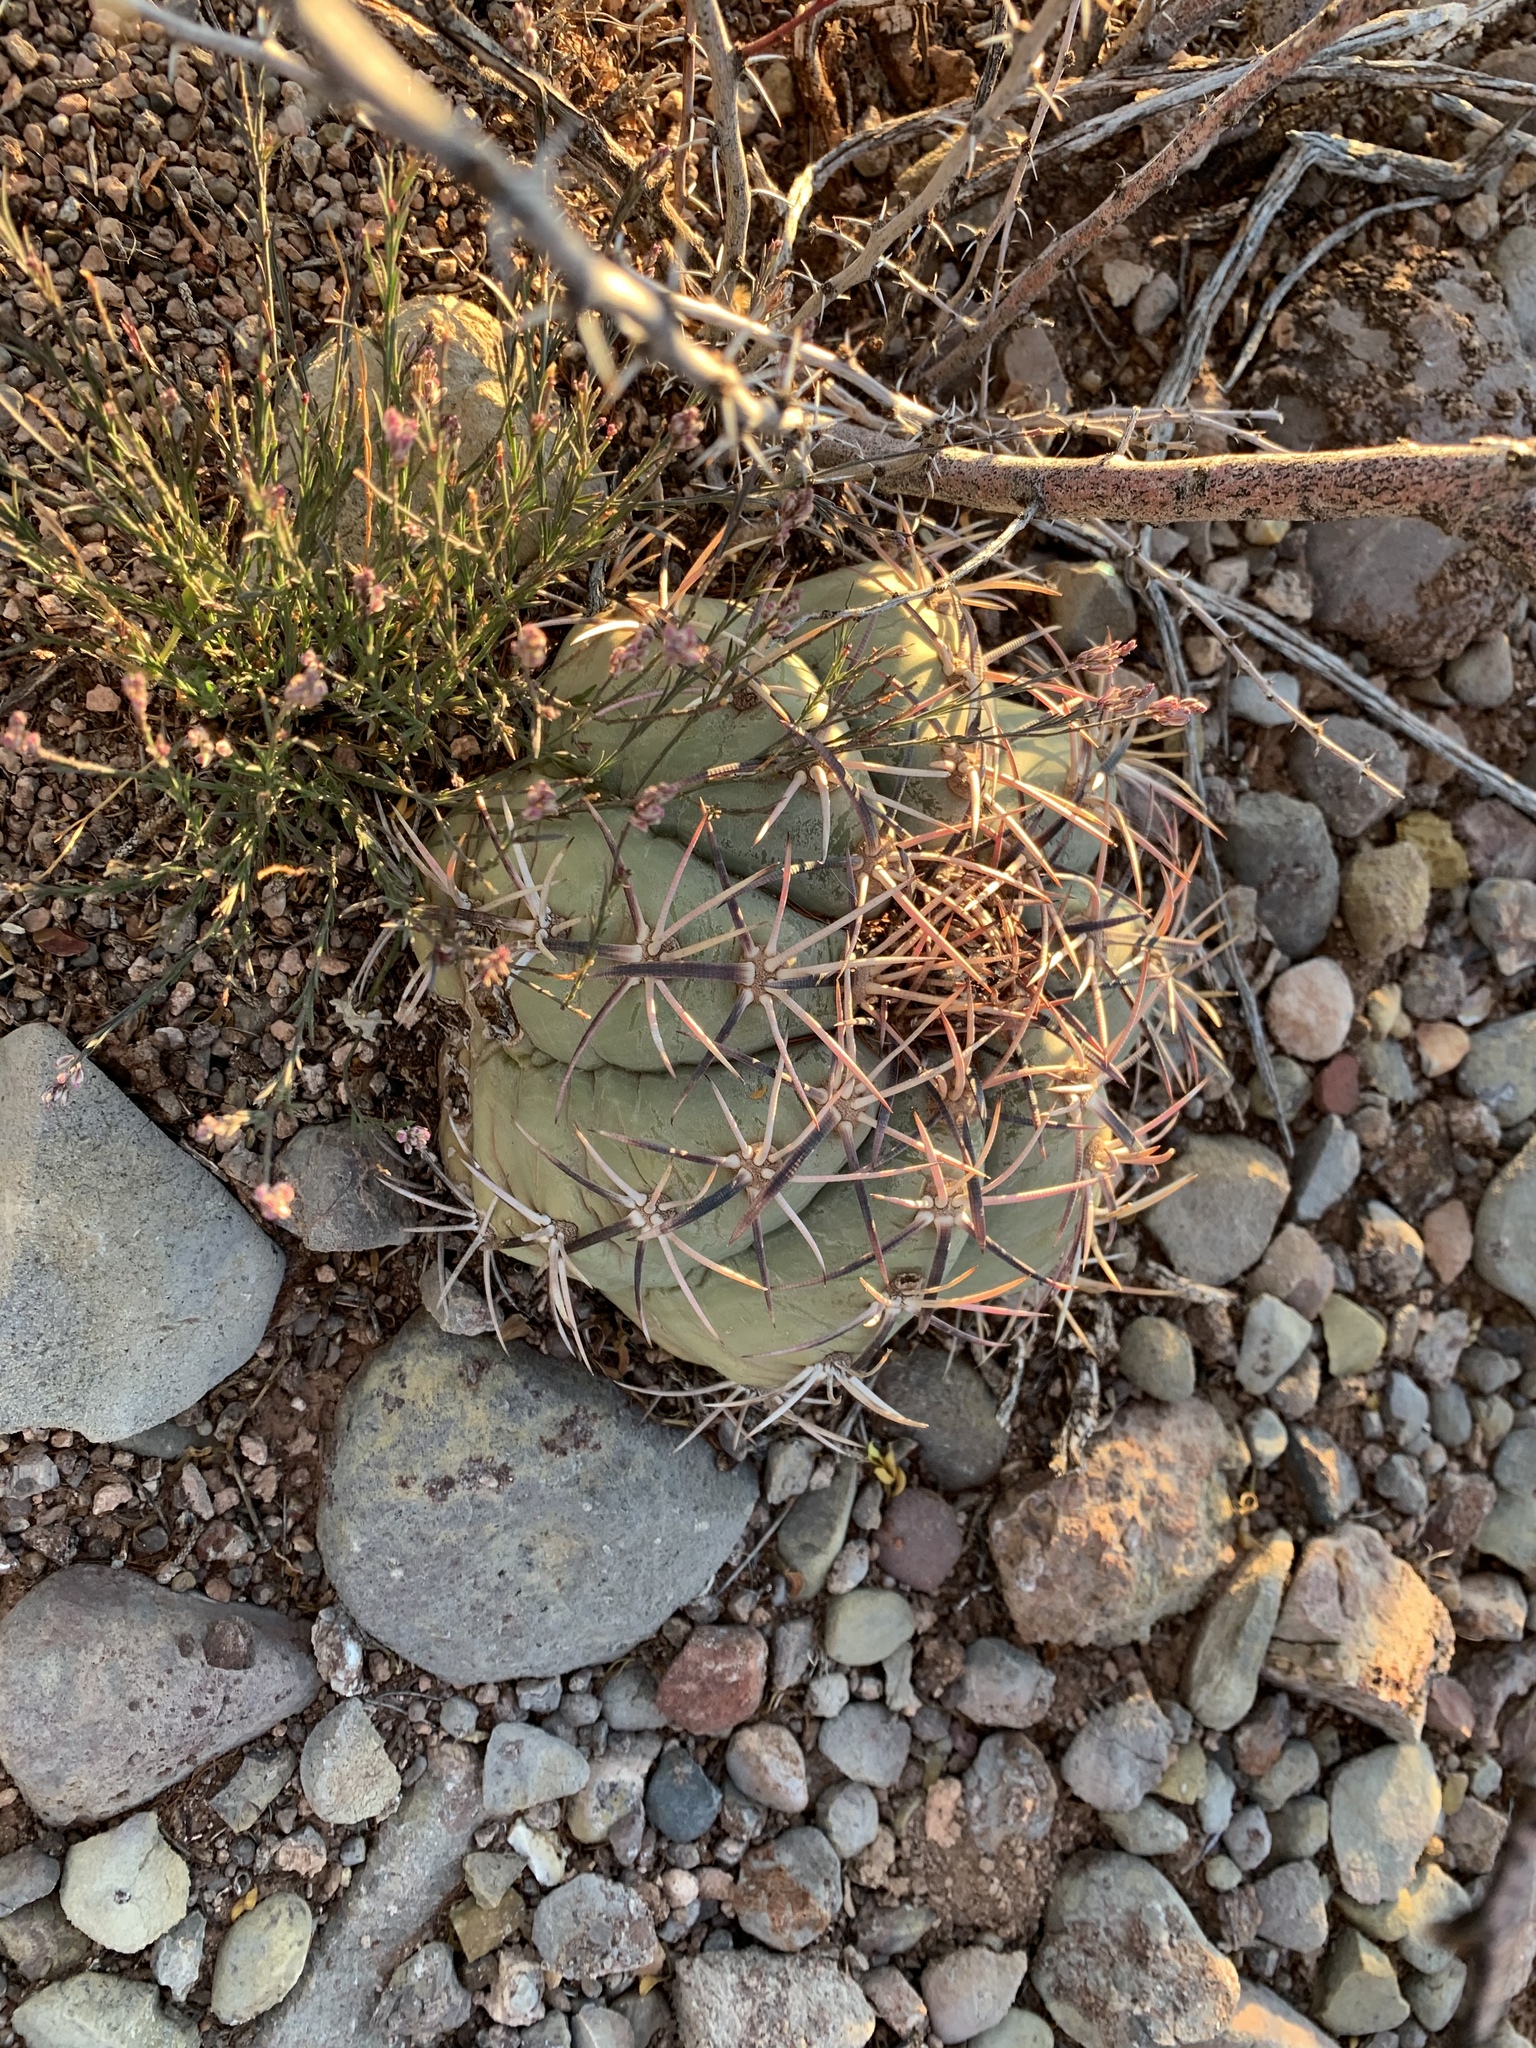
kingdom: Plantae
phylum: Tracheophyta
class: Magnoliopsida
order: Caryophyllales
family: Cactaceae
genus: Echinocactus
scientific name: Echinocactus horizonthalonius
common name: Devilshead
